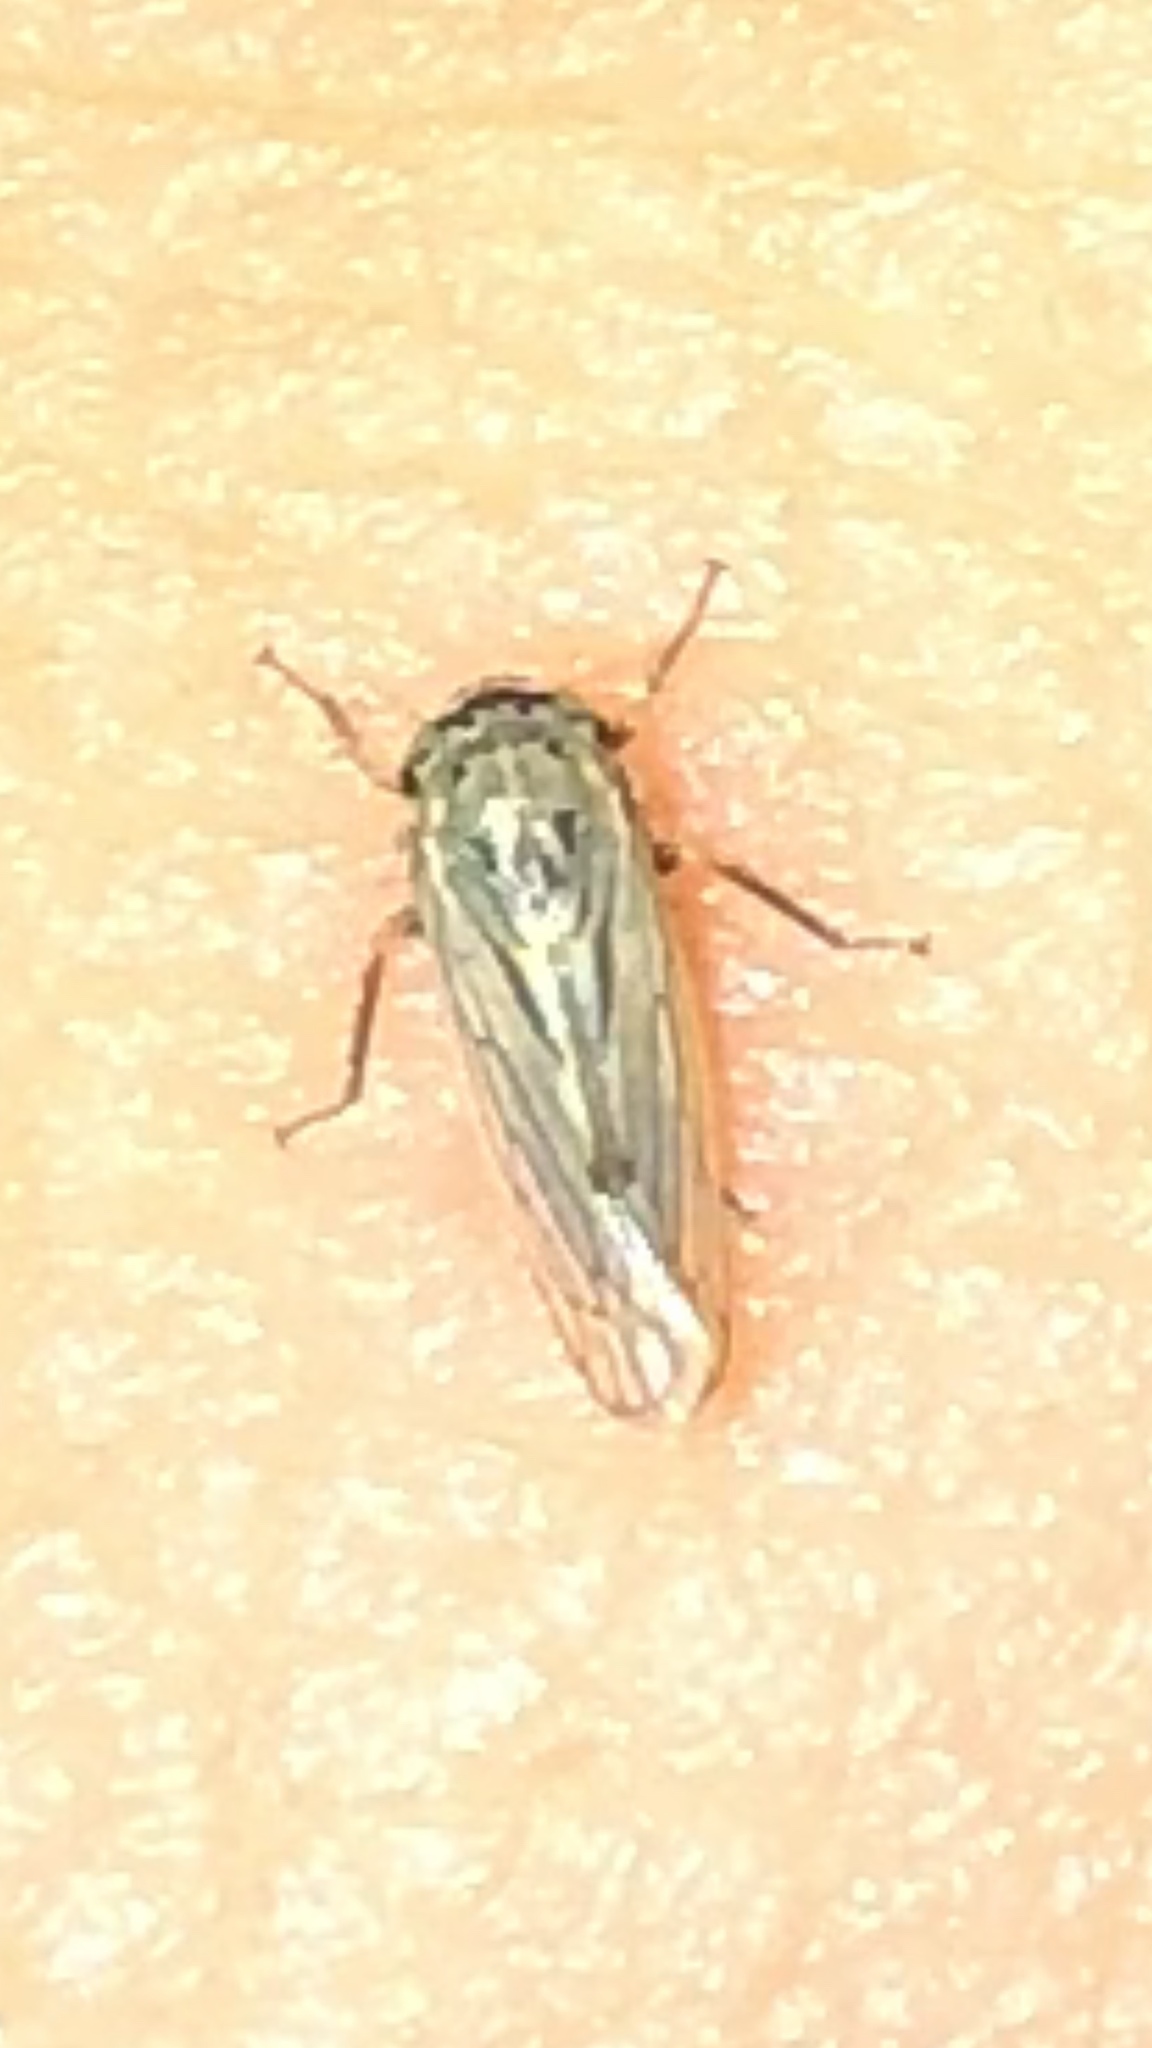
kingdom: Animalia
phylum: Arthropoda
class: Insecta
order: Hemiptera
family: Cicadellidae
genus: Exitianus
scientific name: Exitianus exitiosus
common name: Gray lawn leafhopper
